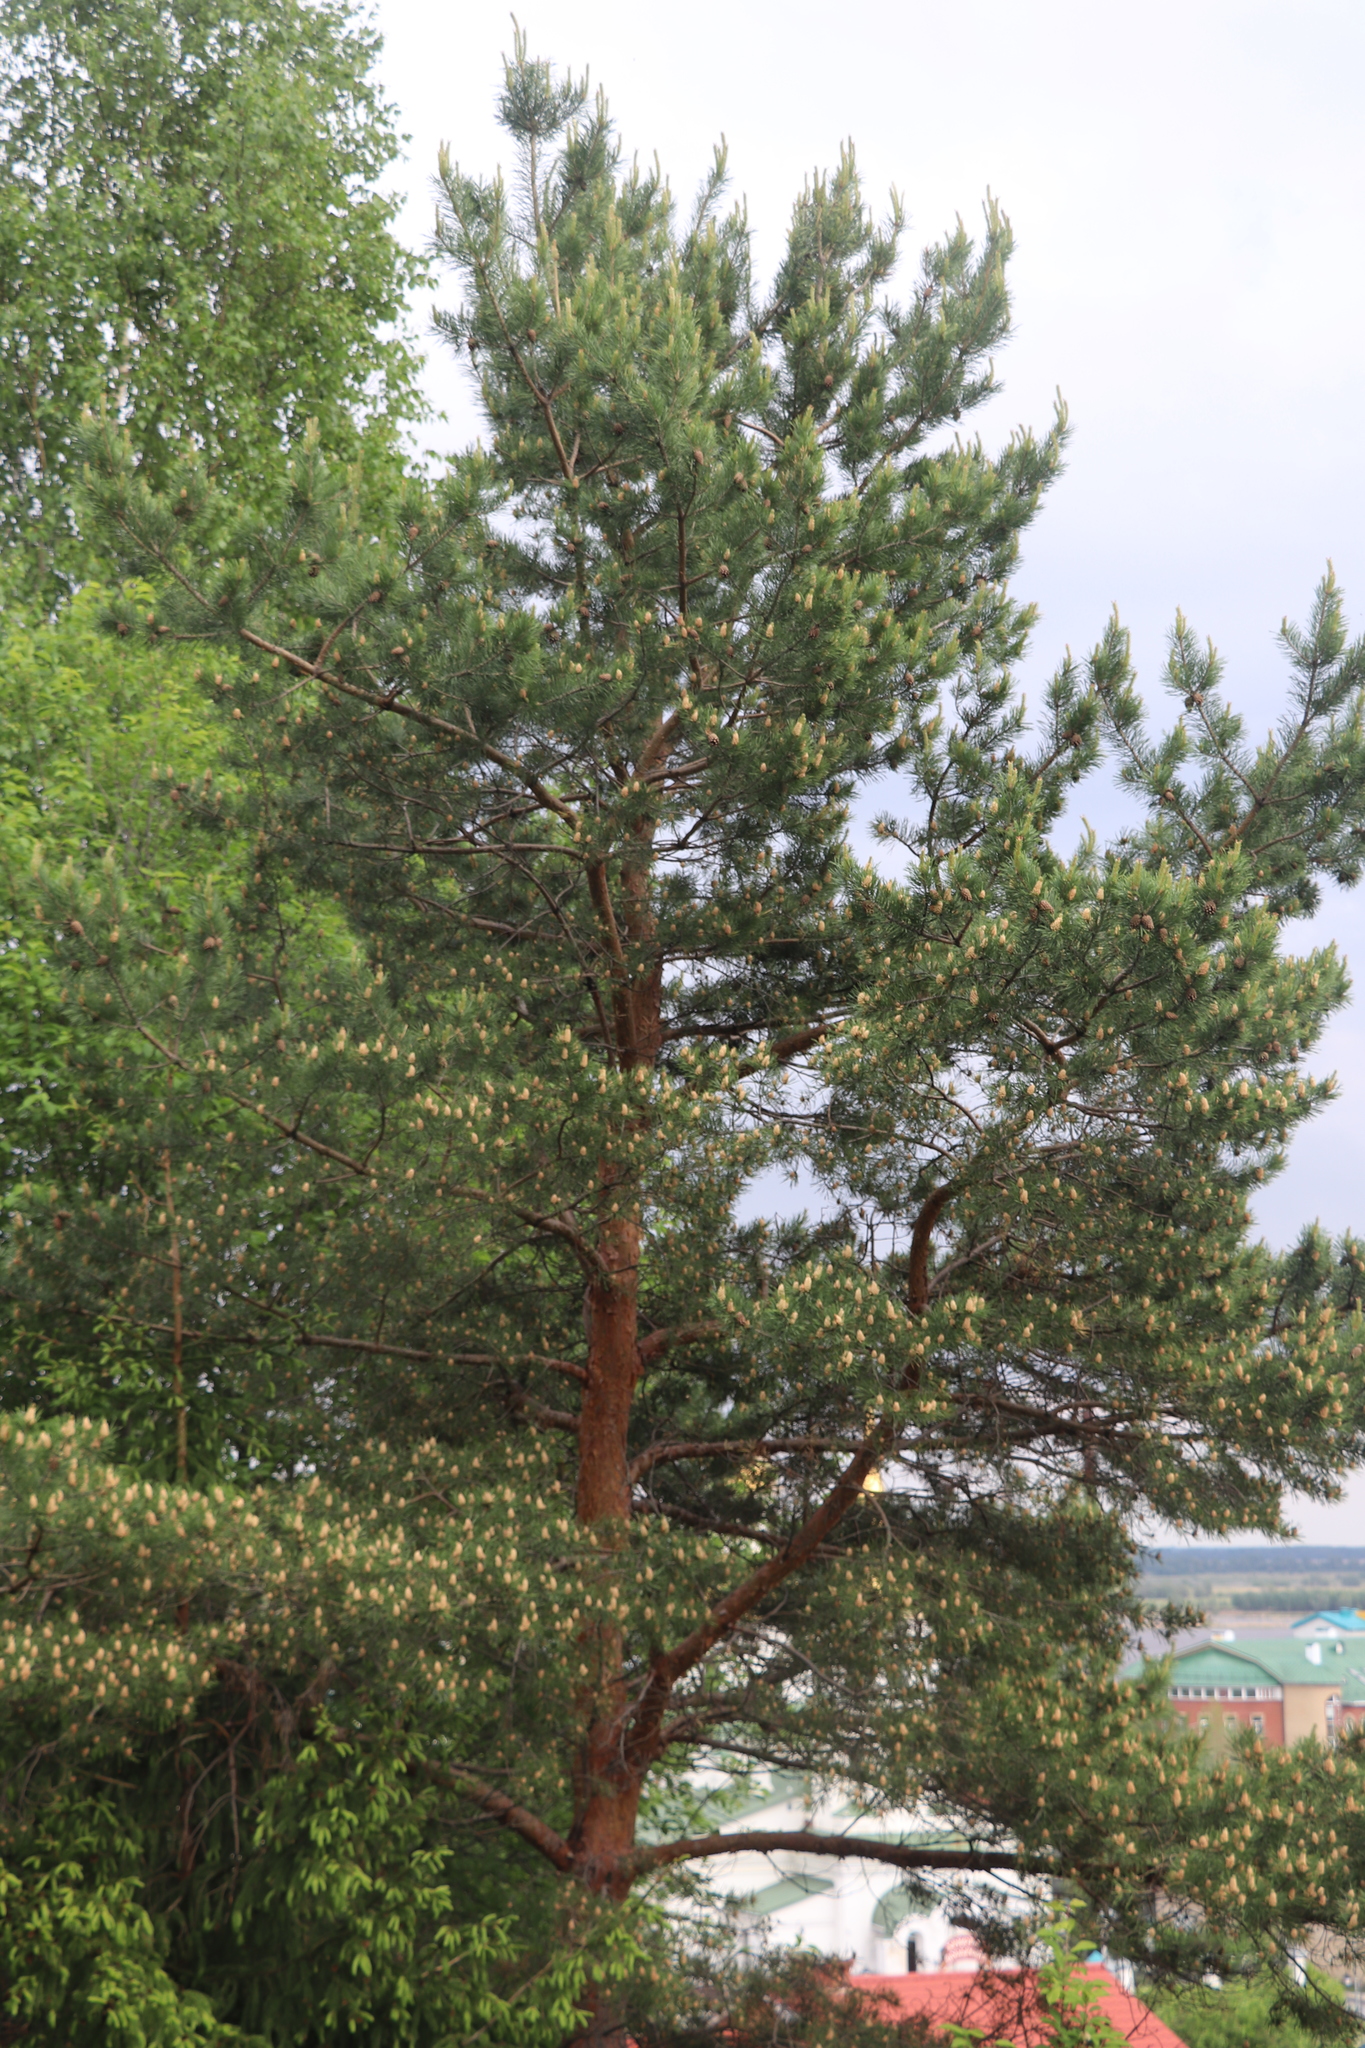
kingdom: Plantae
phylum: Tracheophyta
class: Pinopsida
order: Pinales
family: Pinaceae
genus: Pinus
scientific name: Pinus sylvestris
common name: Scots pine
